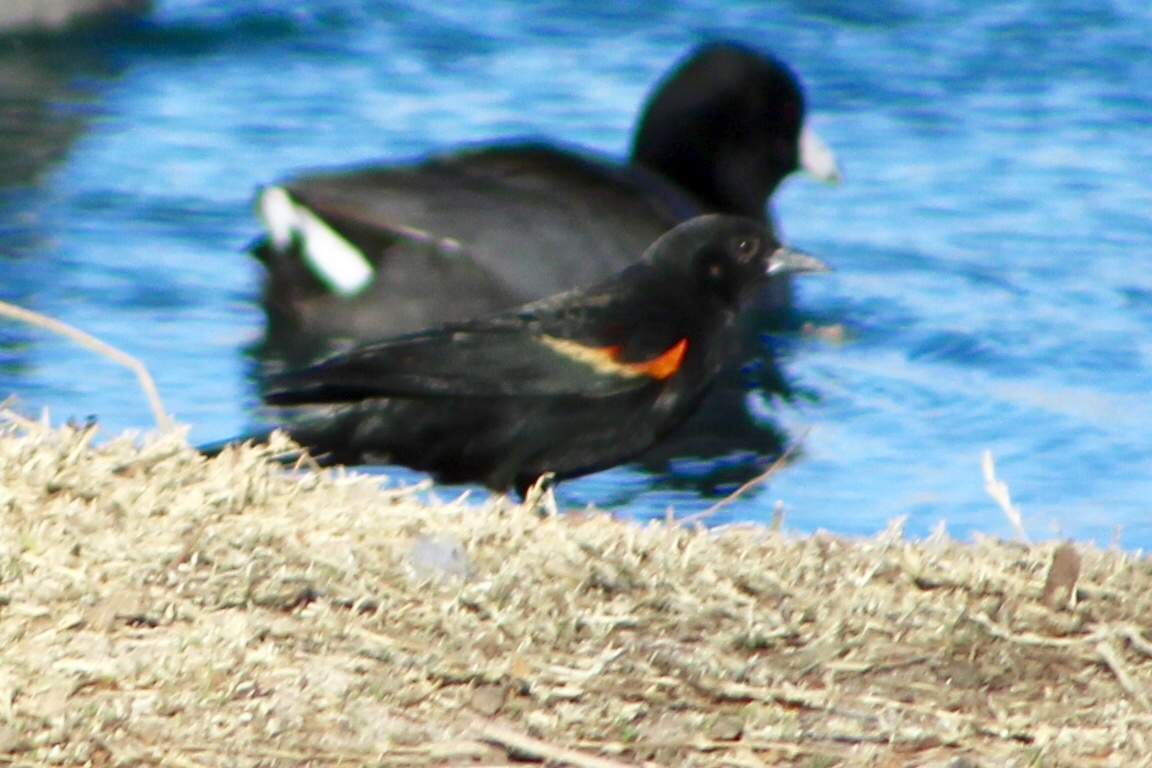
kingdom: Animalia
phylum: Chordata
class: Aves
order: Passeriformes
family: Icteridae
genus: Agelaius
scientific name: Agelaius phoeniceus
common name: Red-winged blackbird
